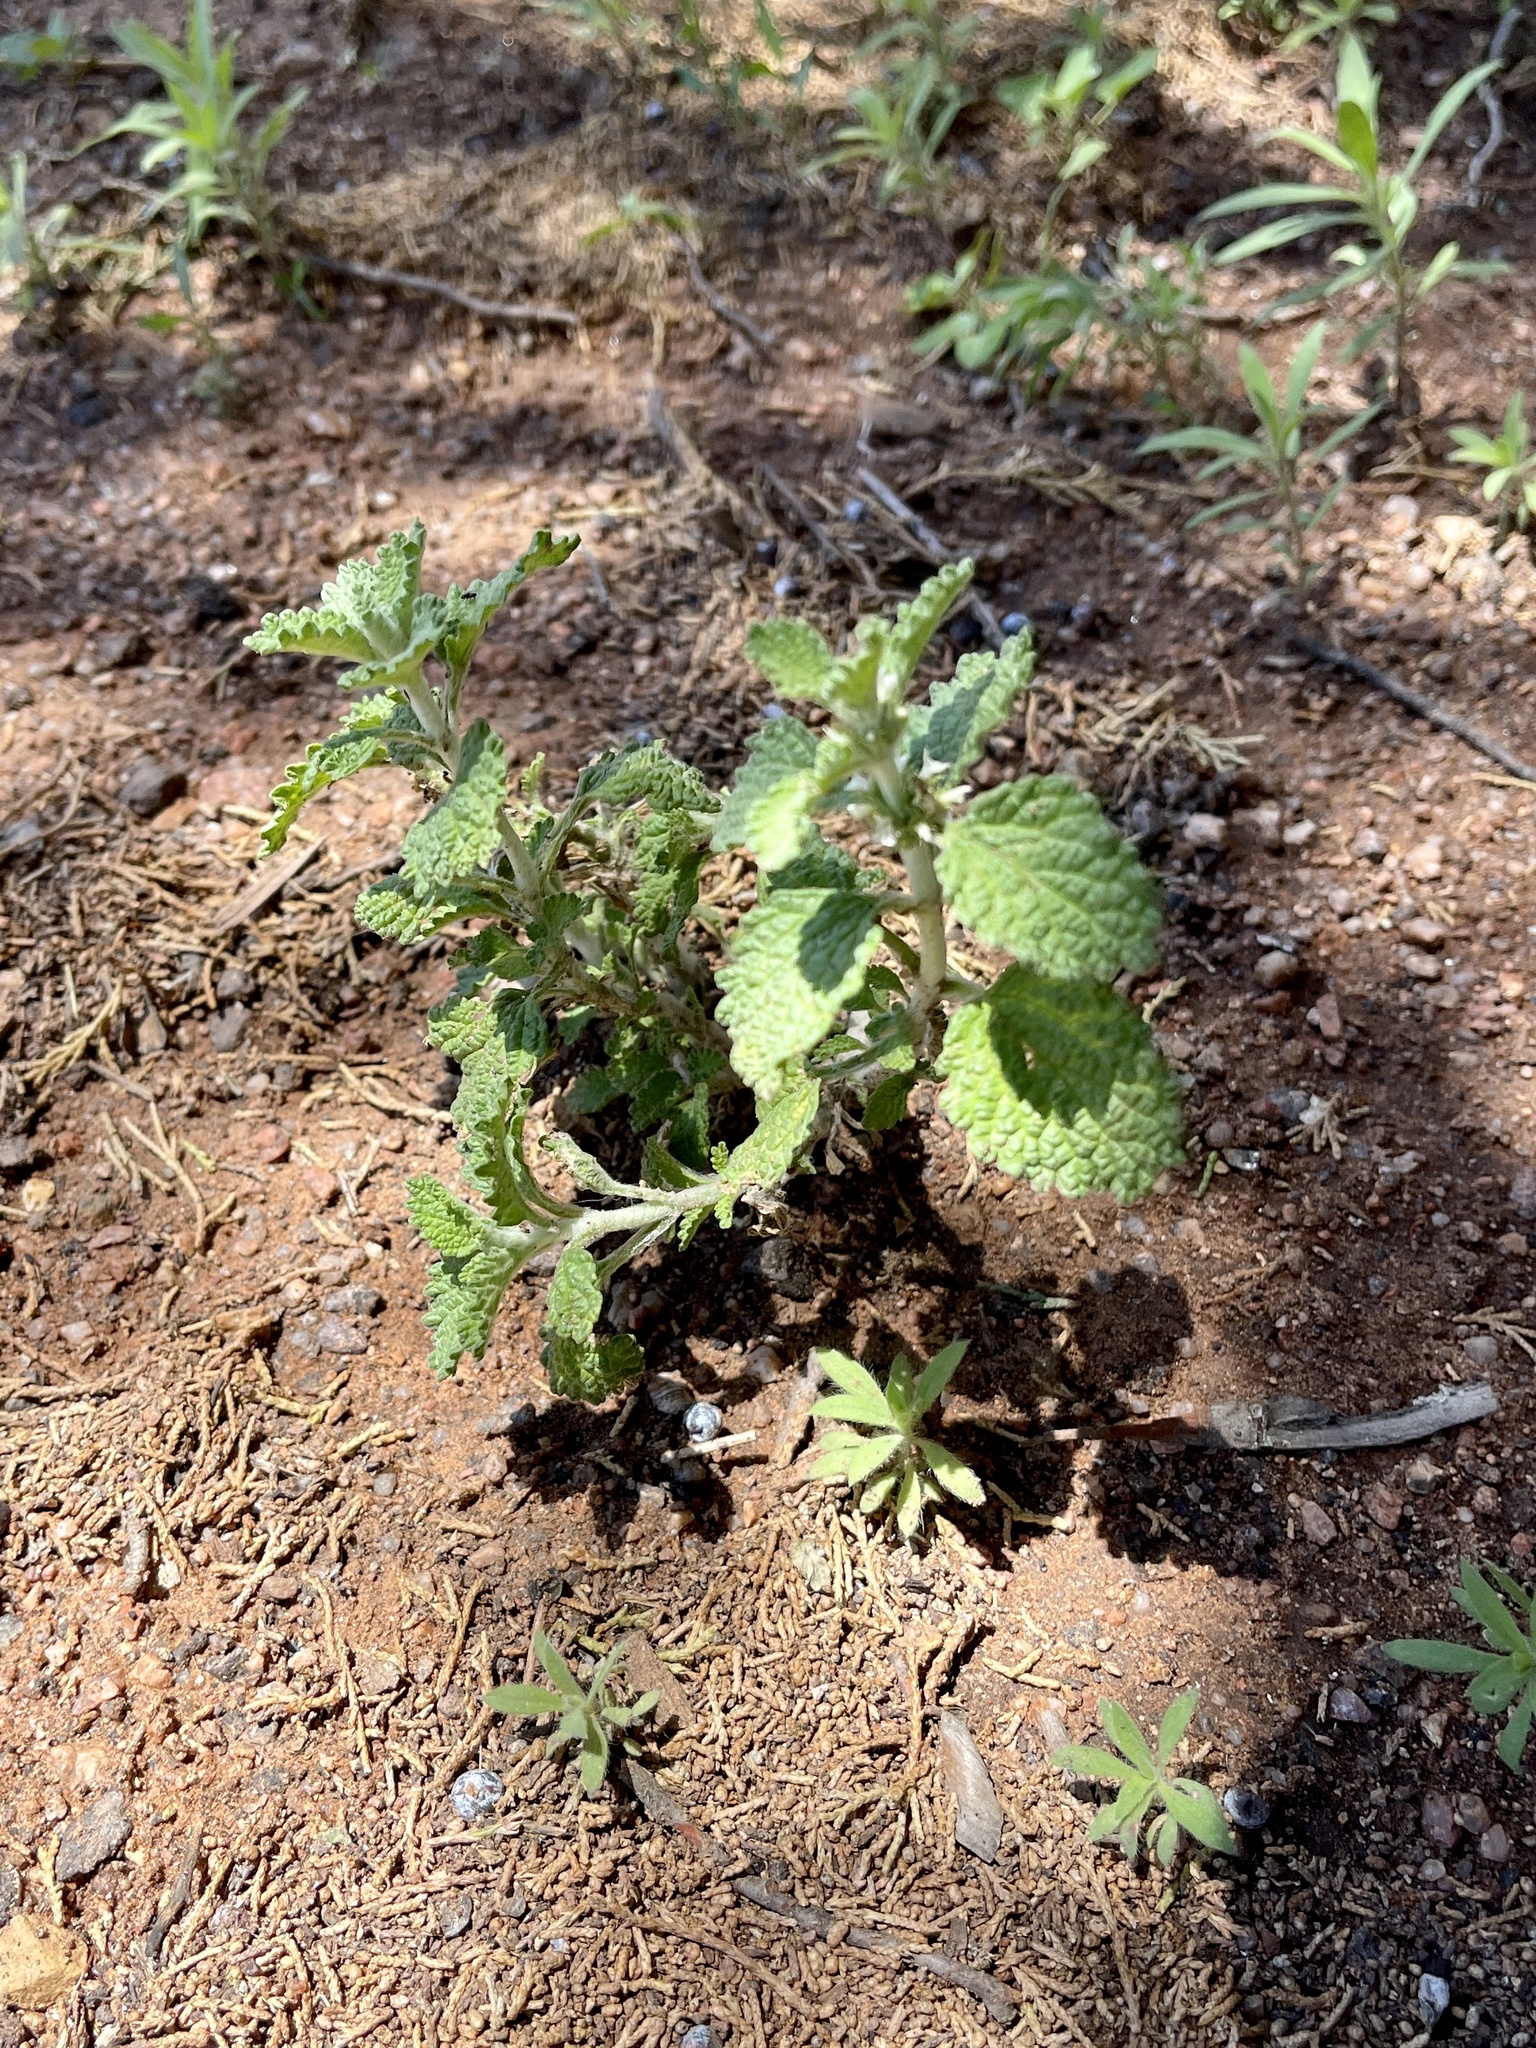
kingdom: Plantae
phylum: Tracheophyta
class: Magnoliopsida
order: Lamiales
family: Lamiaceae
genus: Marrubium
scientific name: Marrubium vulgare
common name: Horehound
